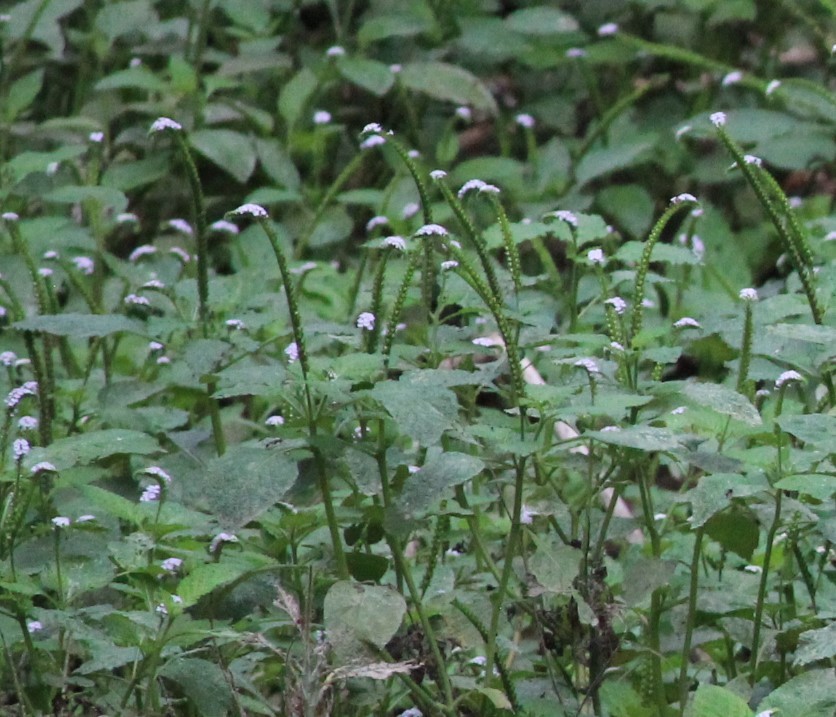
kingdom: Plantae
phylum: Tracheophyta
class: Magnoliopsida
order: Boraginales
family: Heliotropiaceae
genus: Heliotropium
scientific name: Heliotropium indicum
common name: Indian heliotrope
